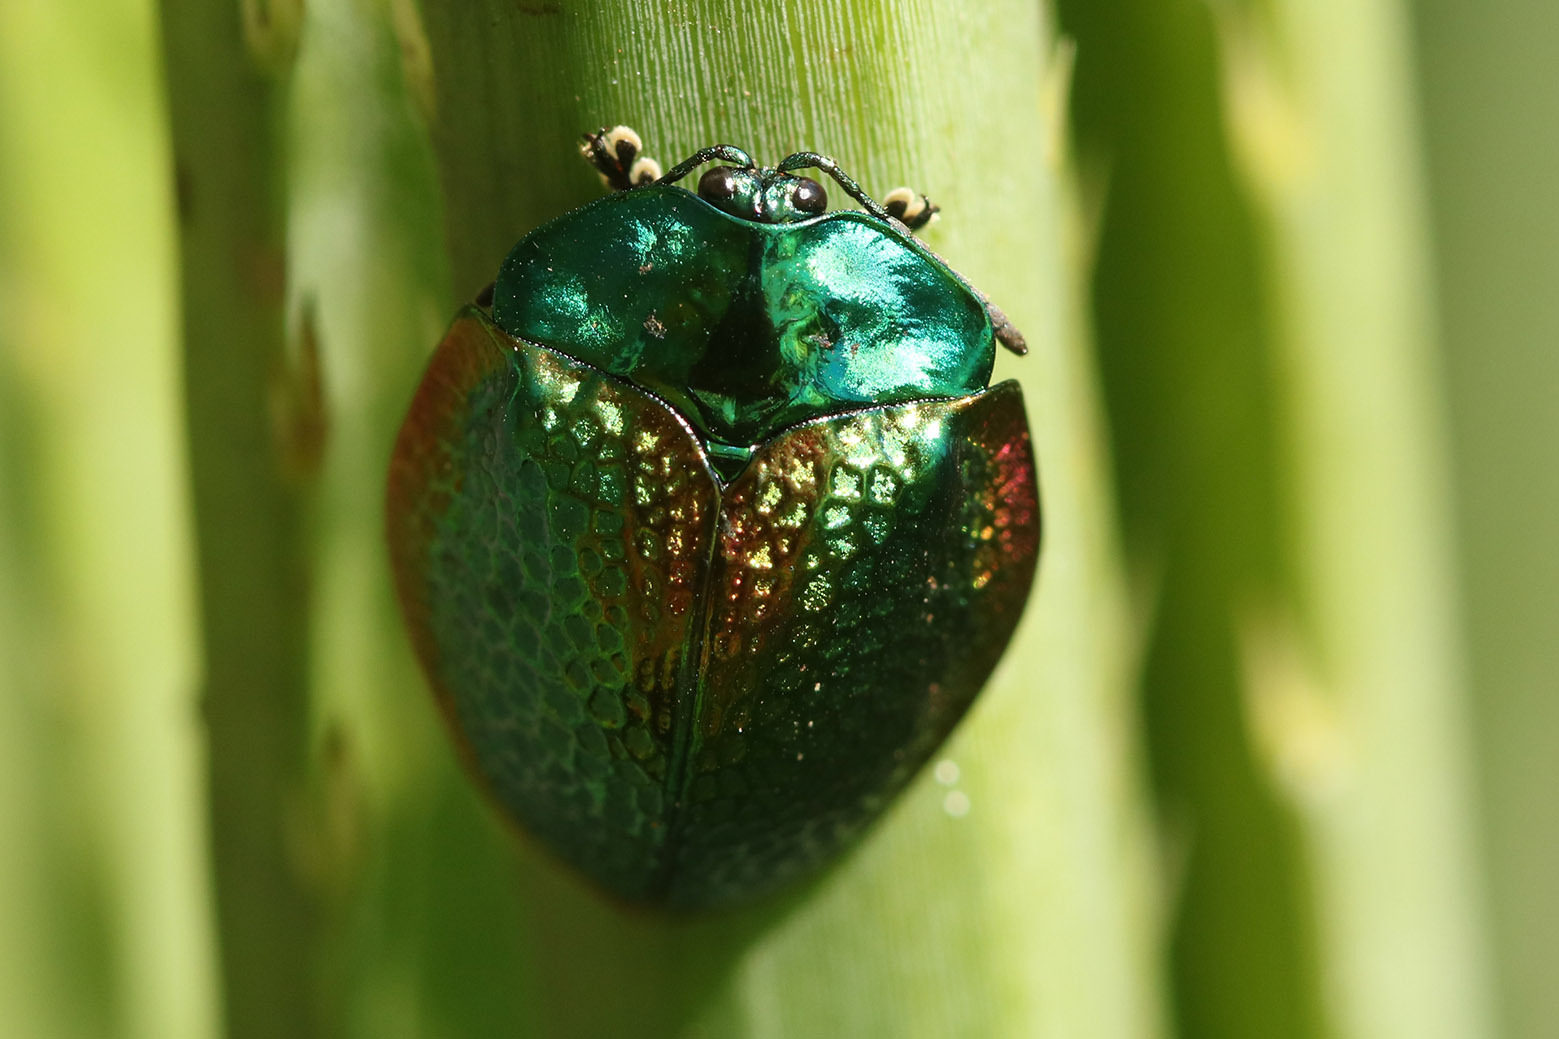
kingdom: Animalia
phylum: Arthropoda
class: Insecta
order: Coleoptera
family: Chrysomelidae
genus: Stolas
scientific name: Stolas festiva
